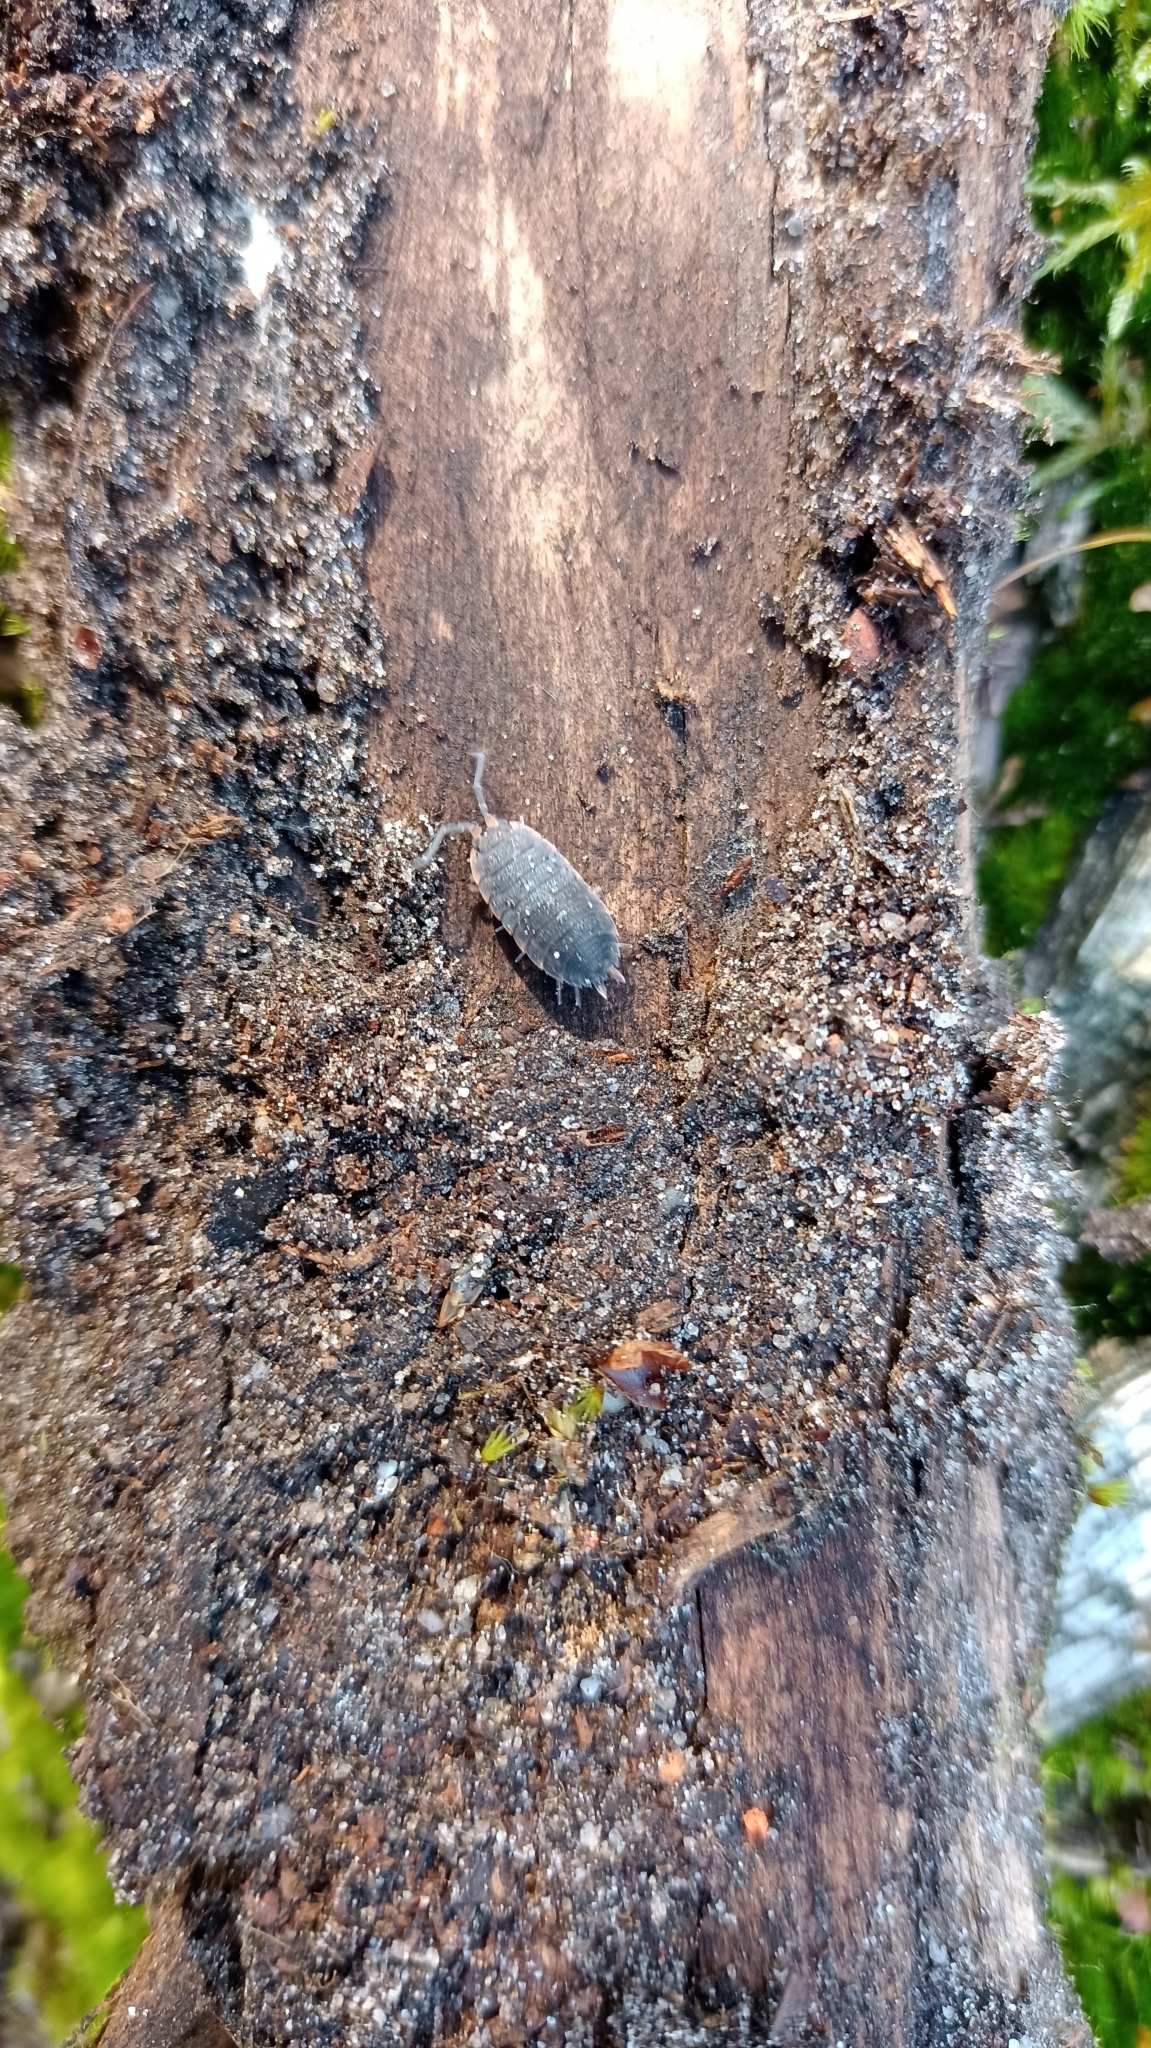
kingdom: Animalia
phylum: Arthropoda
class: Malacostraca
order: Isopoda
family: Porcellionidae
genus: Porcellio
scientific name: Porcellio scaber
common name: Common rough woodlouse
